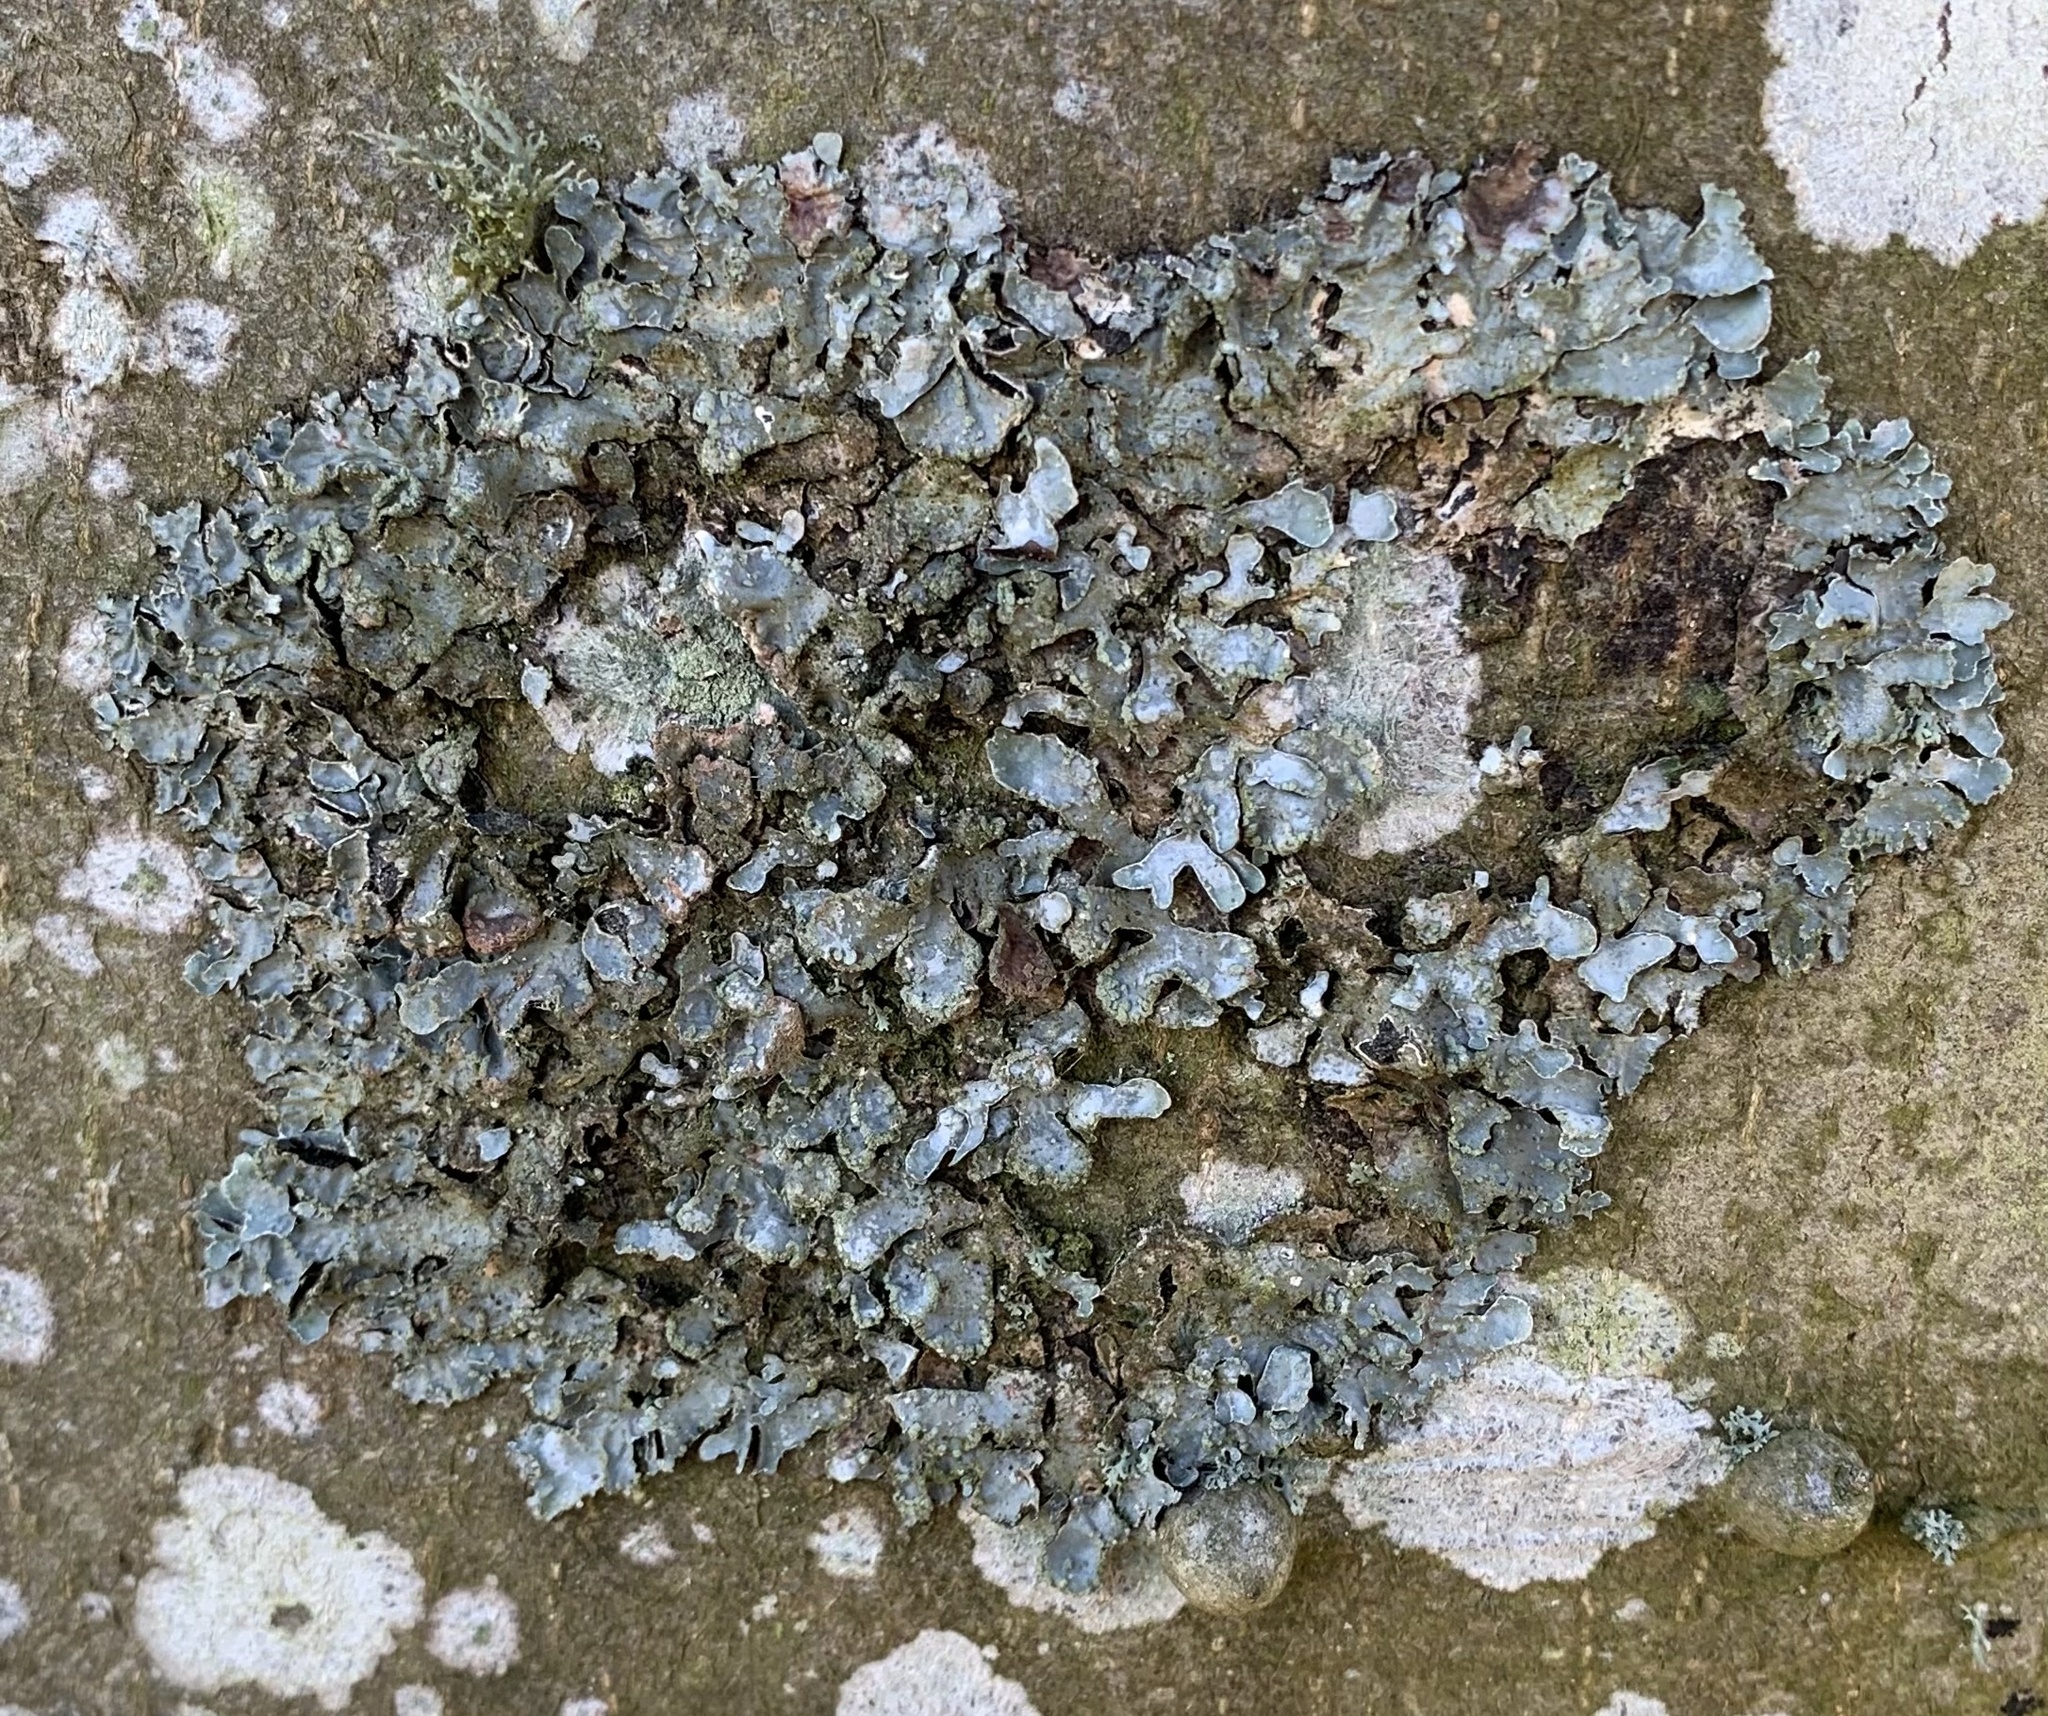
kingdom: Fungi
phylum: Ascomycota
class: Lecanoromycetes
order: Lecanorales
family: Parmeliaceae
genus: Parmelia
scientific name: Parmelia sulcata
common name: Netted shield lichen
